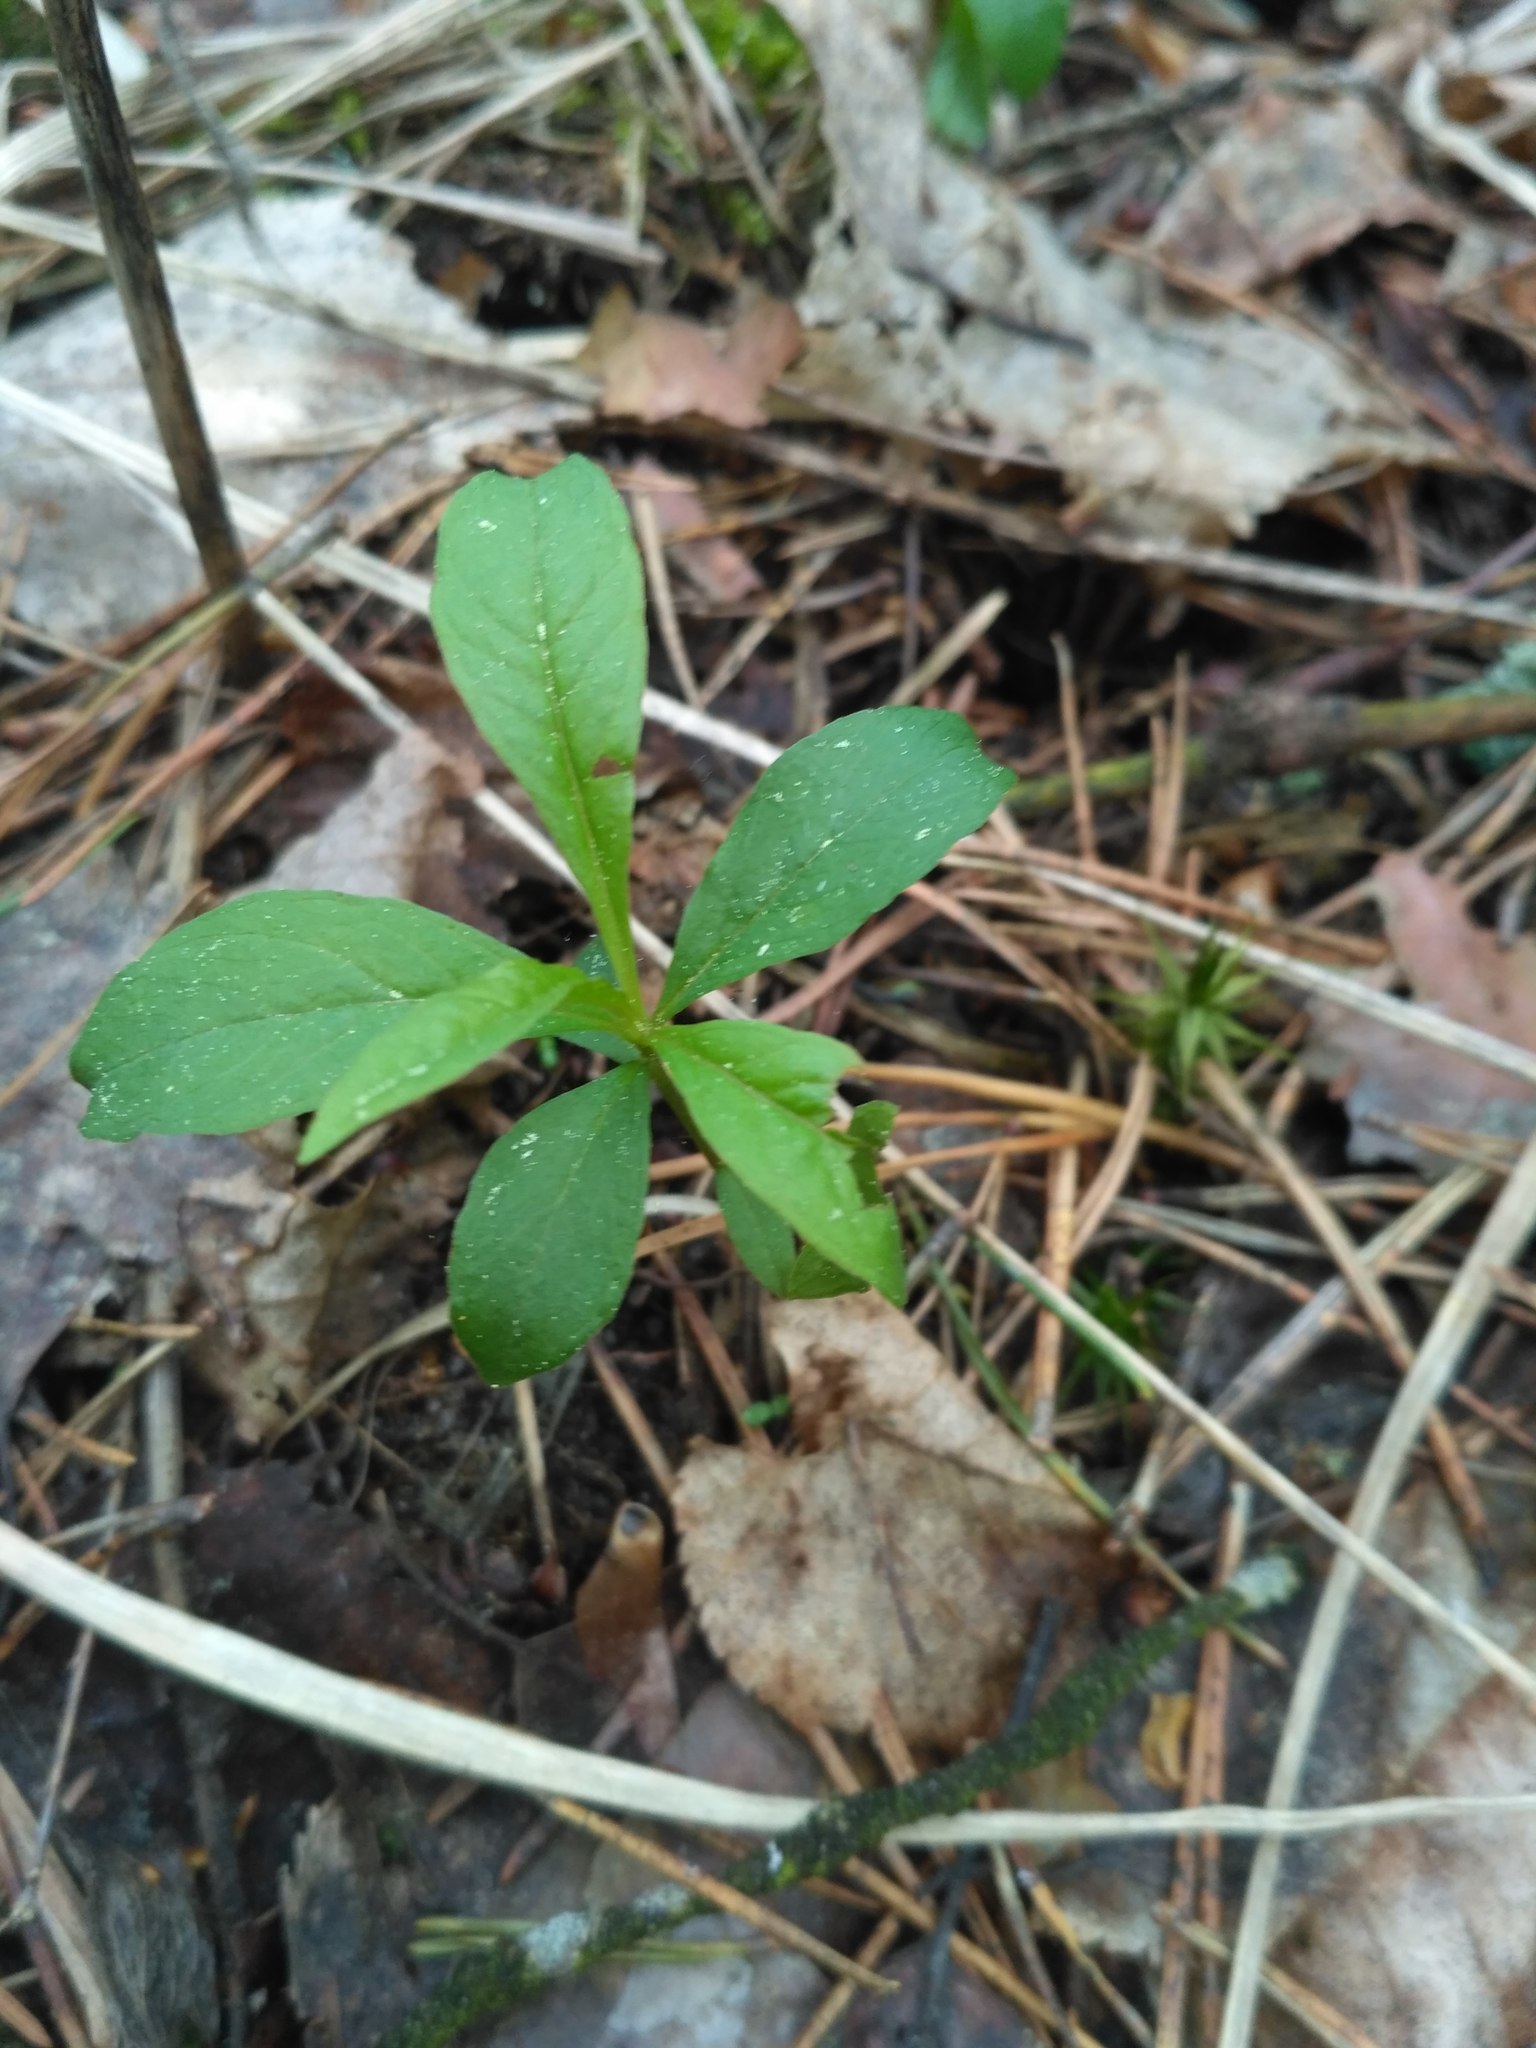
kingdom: Plantae
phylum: Tracheophyta
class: Magnoliopsida
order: Ericales
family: Primulaceae
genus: Lysimachia
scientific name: Lysimachia europaea
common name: Arctic starflower
